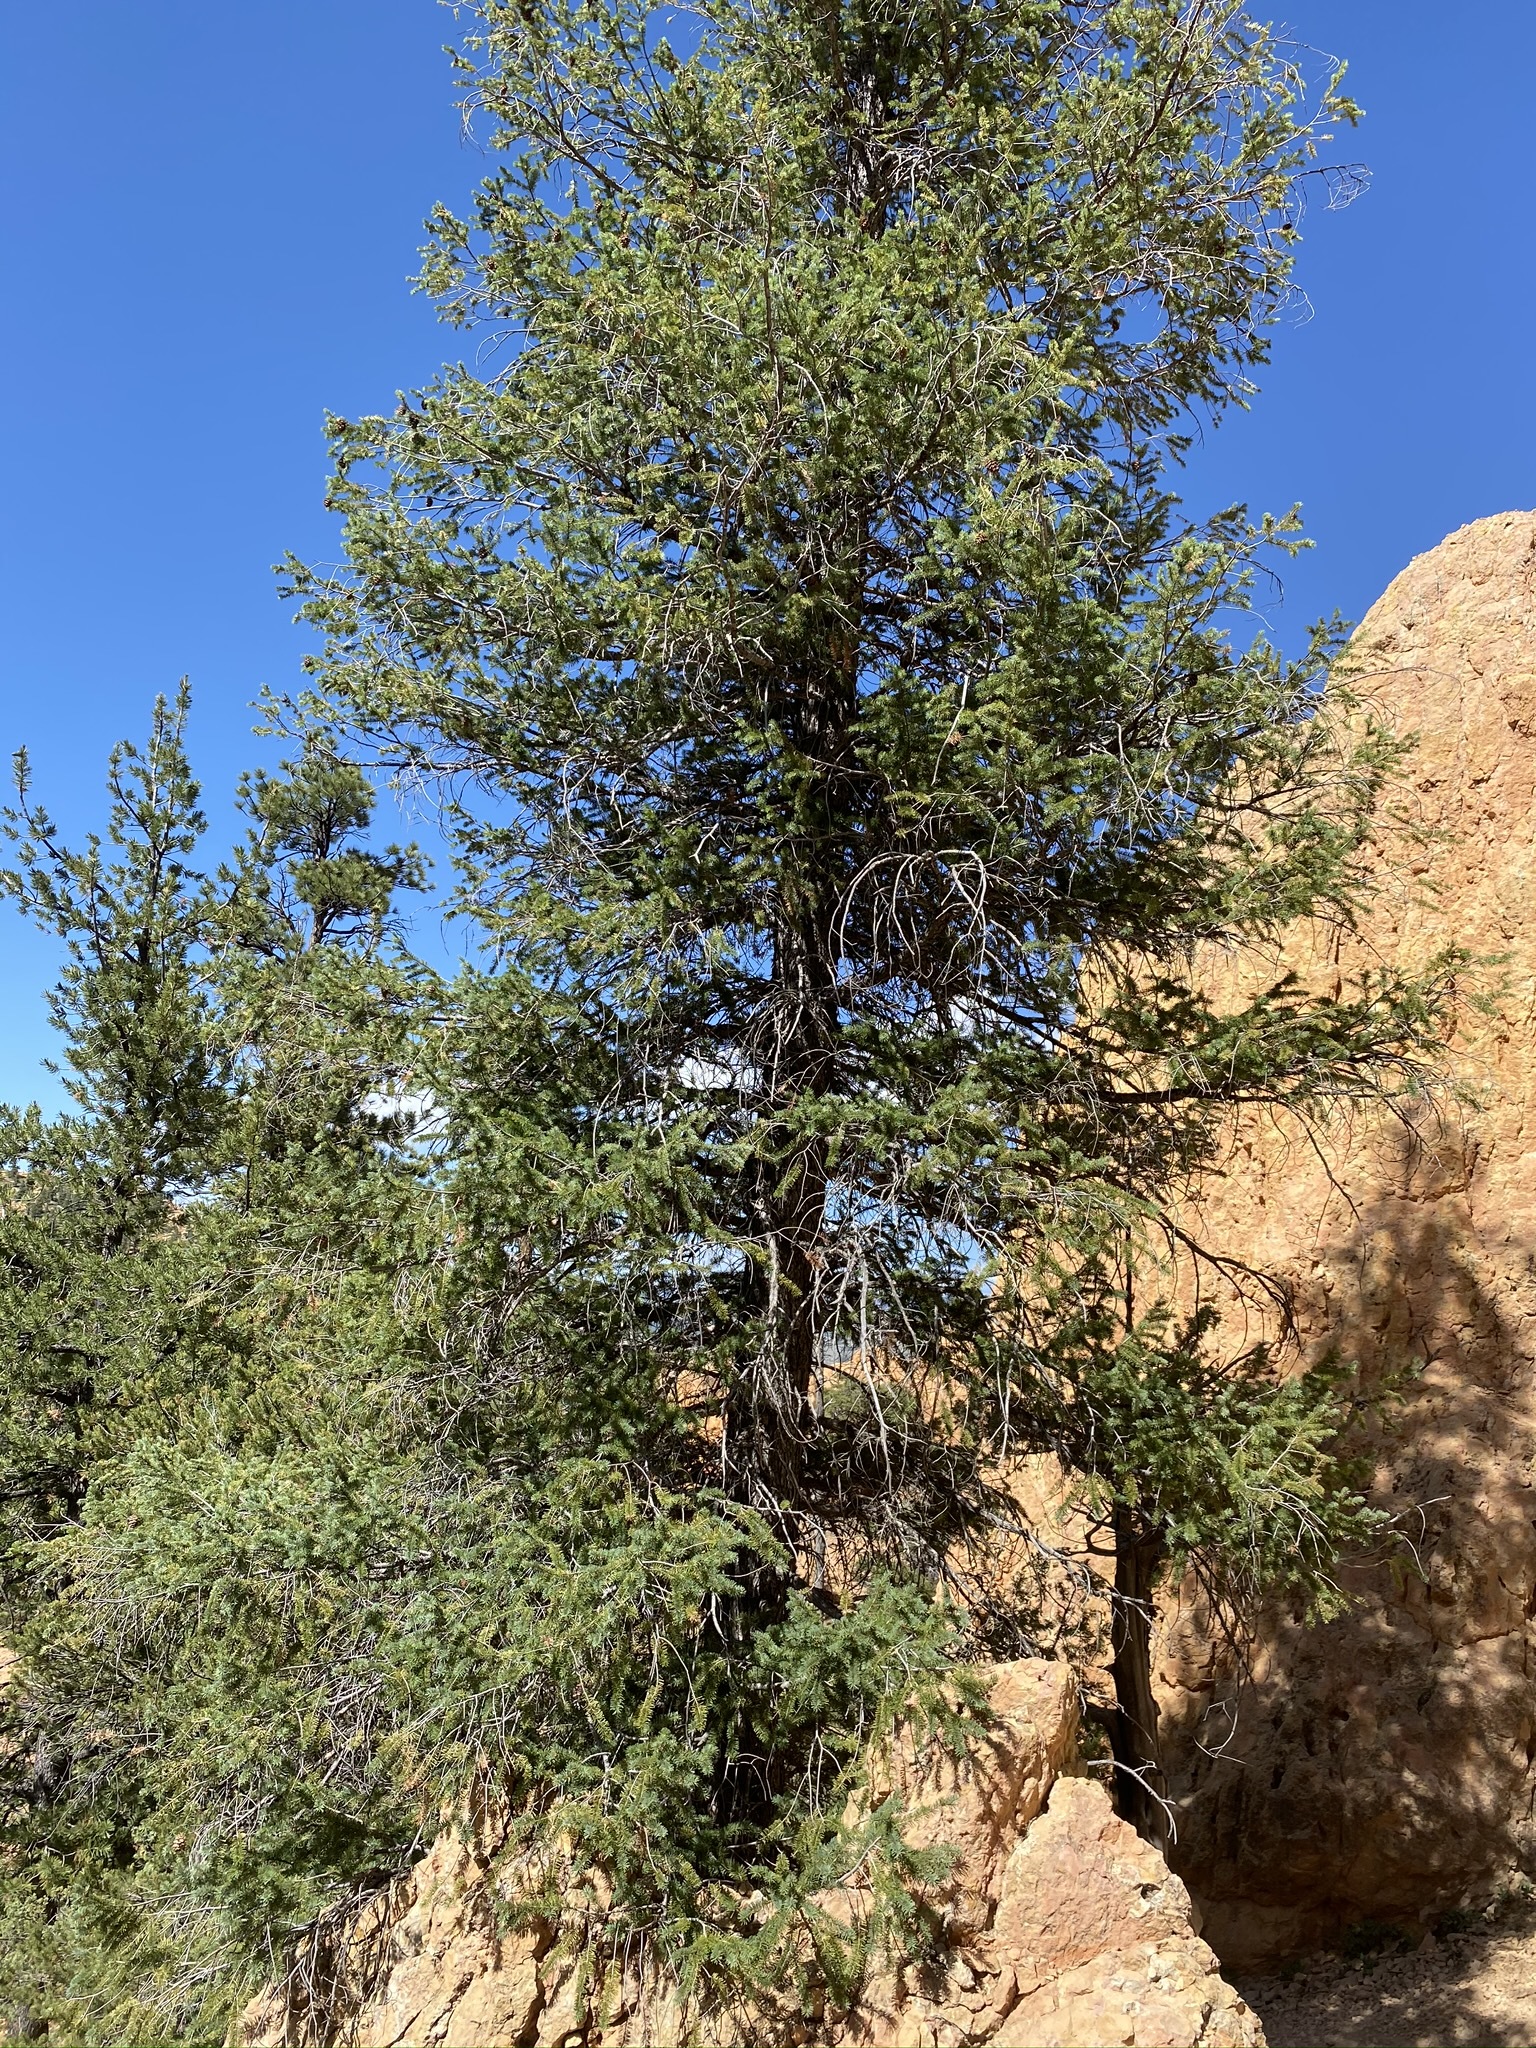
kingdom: Plantae
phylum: Tracheophyta
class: Pinopsida
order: Pinales
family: Pinaceae
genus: Pseudotsuga
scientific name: Pseudotsuga menziesii
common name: Douglas fir
